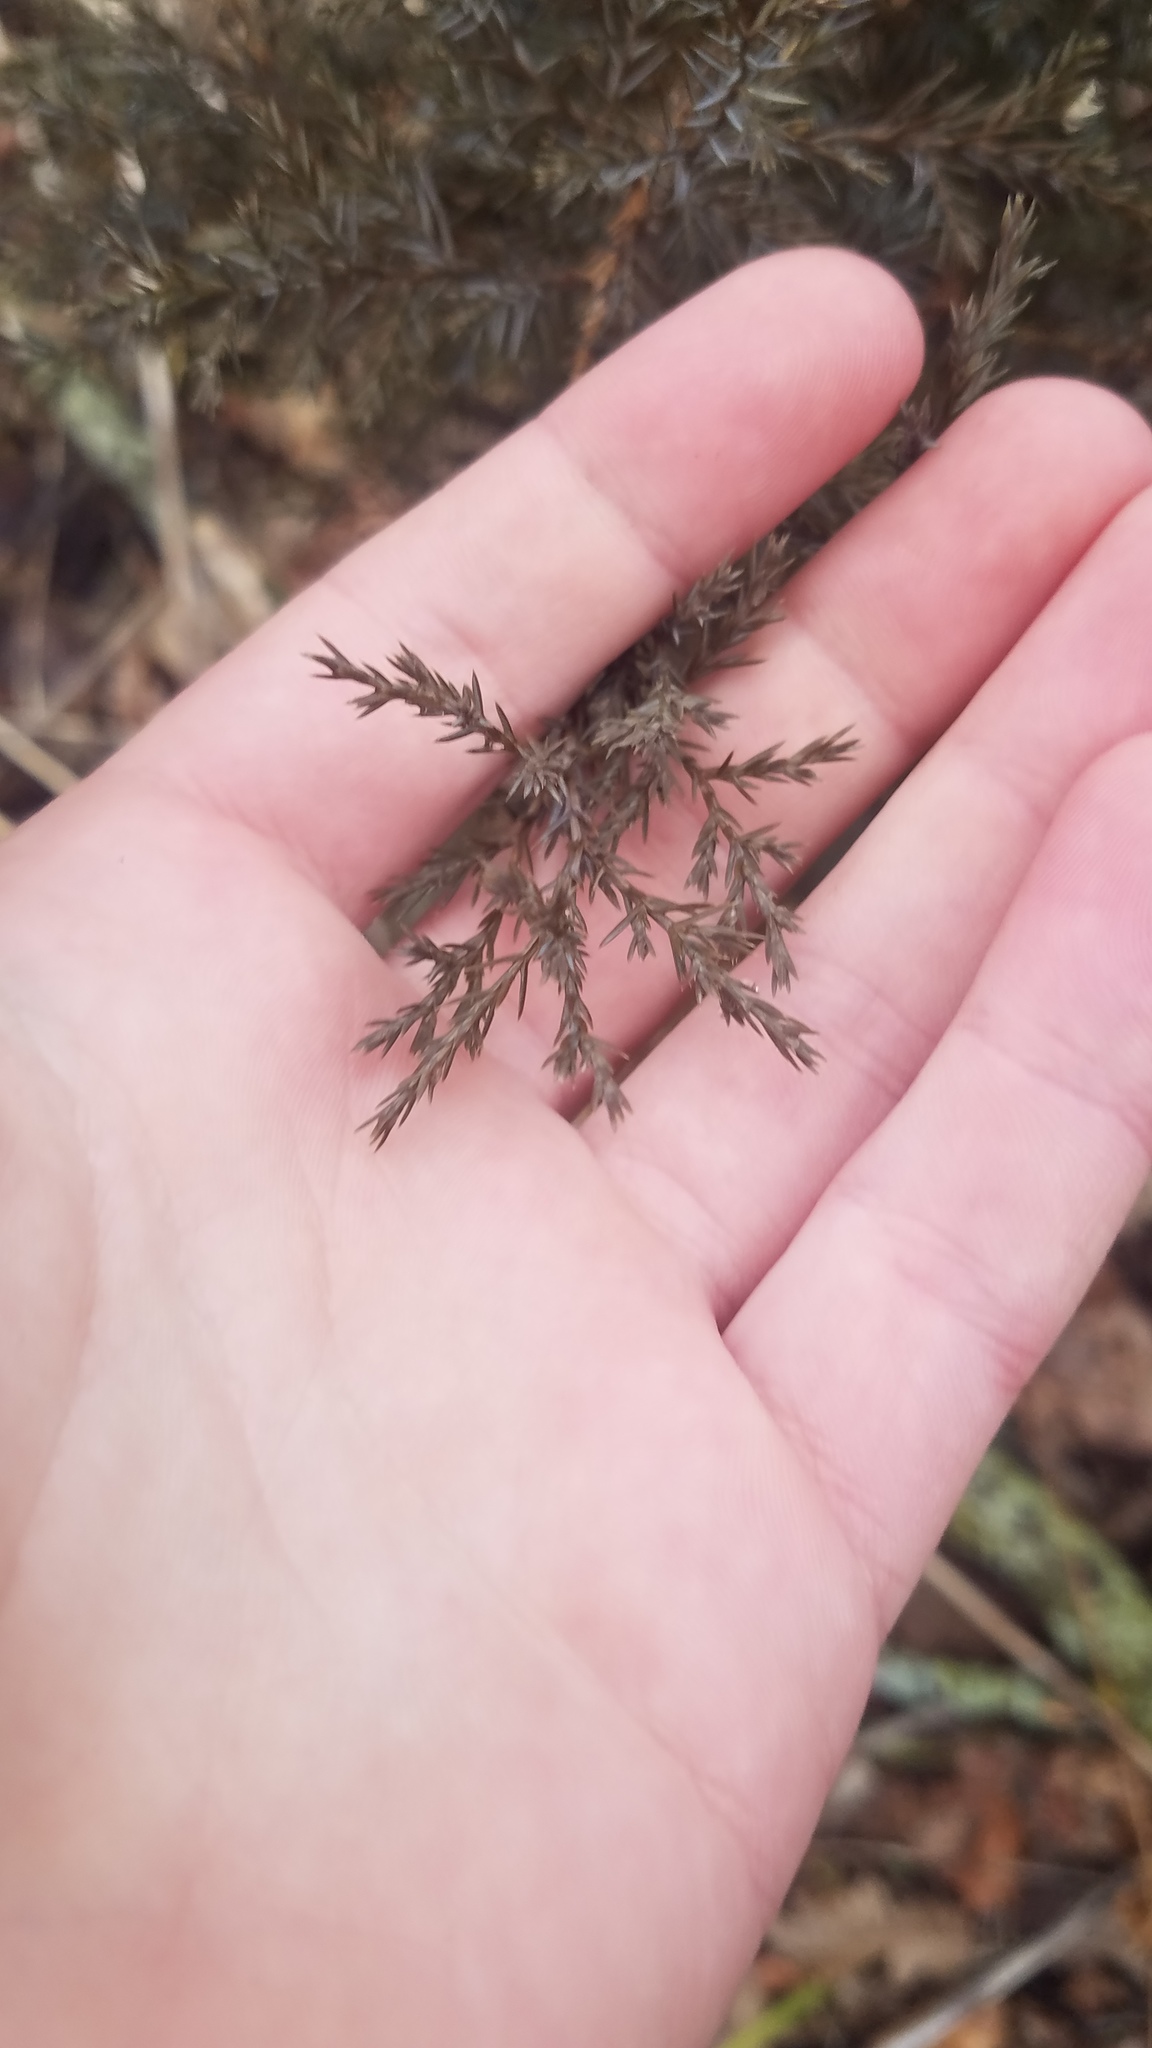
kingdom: Plantae
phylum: Tracheophyta
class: Pinopsida
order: Pinales
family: Cupressaceae
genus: Juniperus
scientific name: Juniperus virginiana
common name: Red juniper
